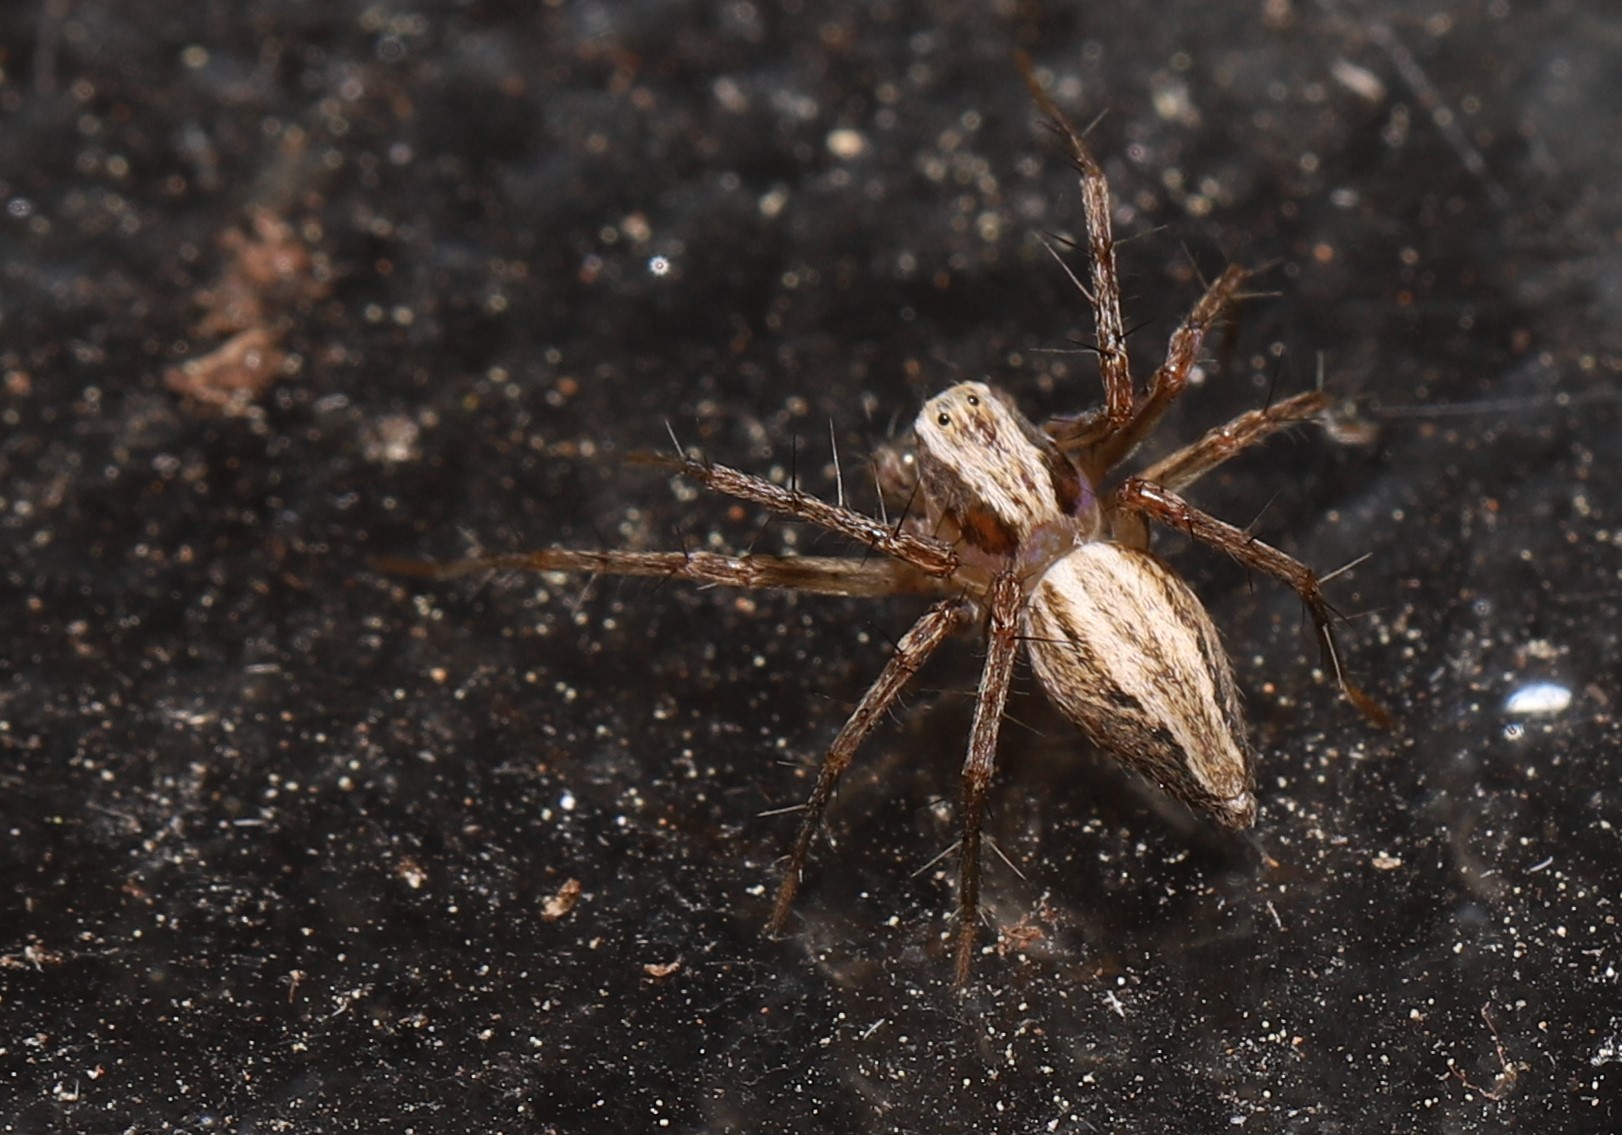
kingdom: Animalia
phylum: Arthropoda
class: Arachnida
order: Araneae
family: Oxyopidae
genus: Oxyopes
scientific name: Oxyopes gracilipes
